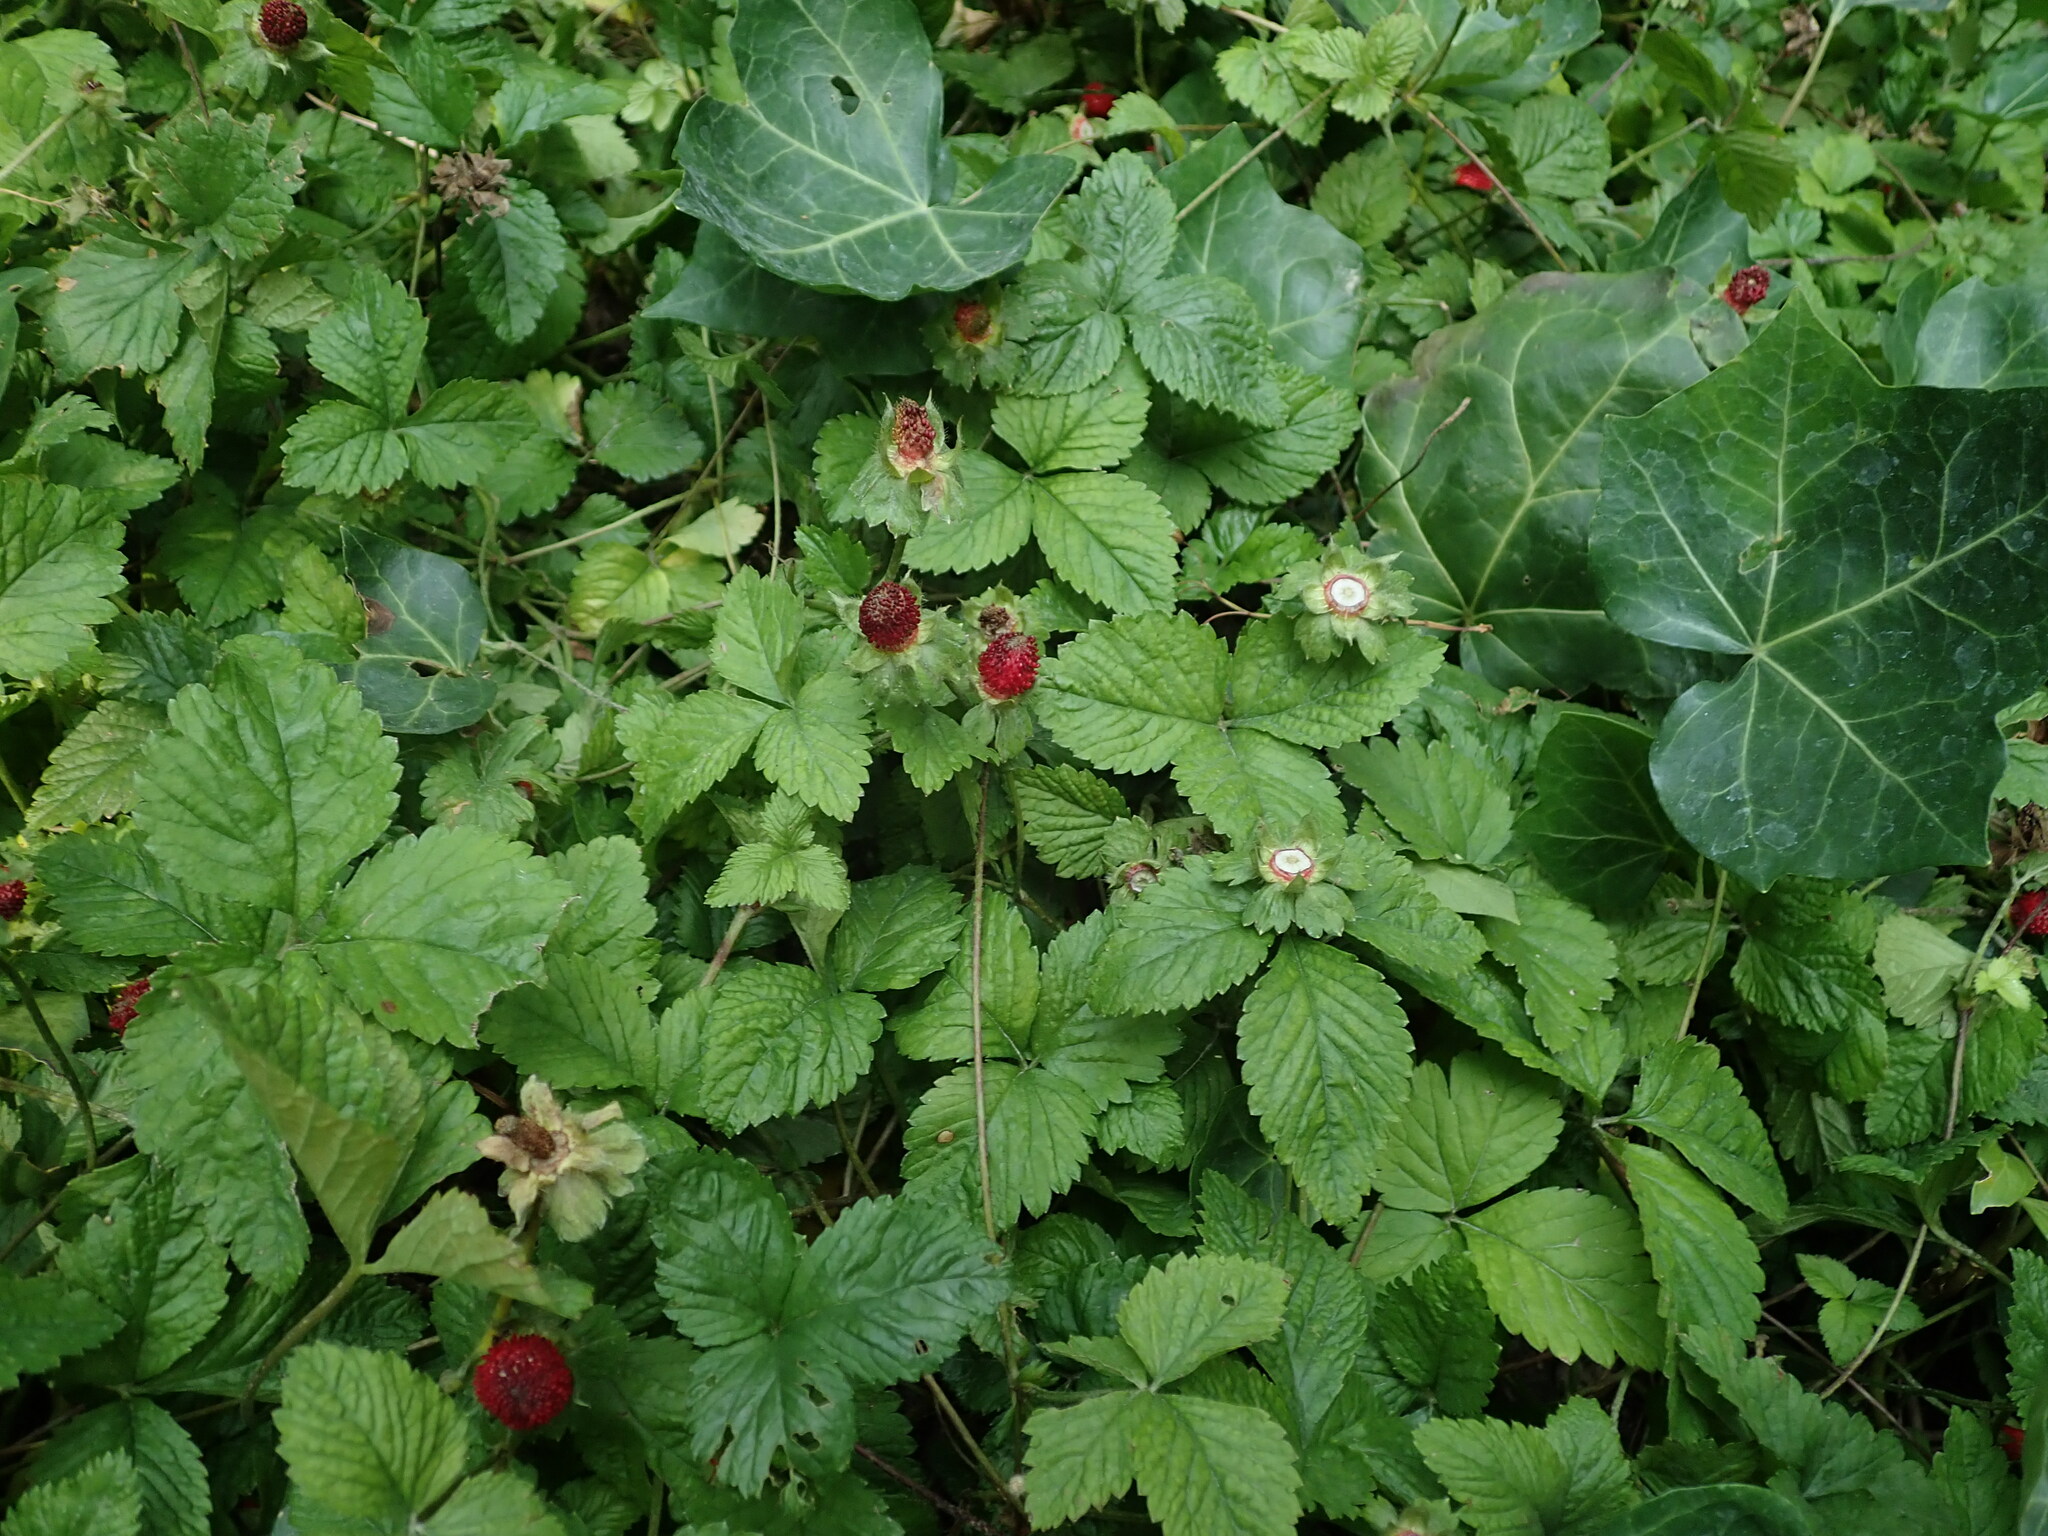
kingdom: Plantae
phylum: Tracheophyta
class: Magnoliopsida
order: Rosales
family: Rosaceae
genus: Potentilla
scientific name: Potentilla indica
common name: Yellow-flowered strawberry
